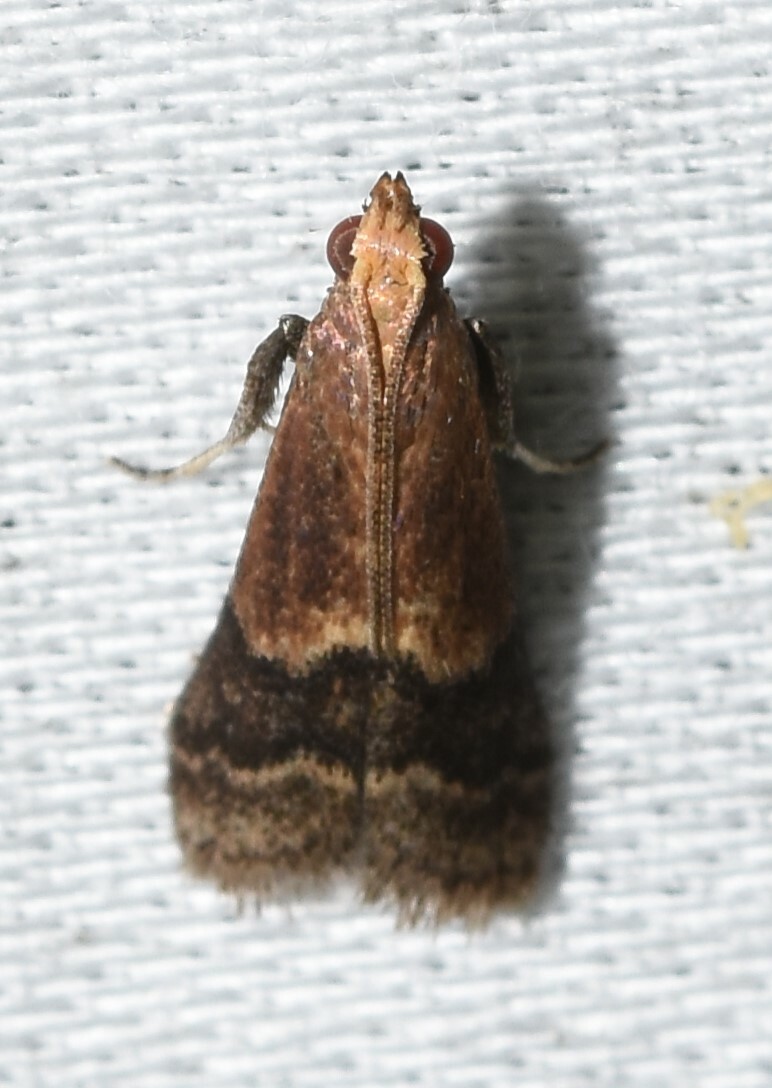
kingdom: Animalia
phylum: Arthropoda
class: Insecta
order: Lepidoptera
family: Pyralidae
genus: Eulogia
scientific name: Eulogia ochrifrontella
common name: Broad-banded eulogia moth
